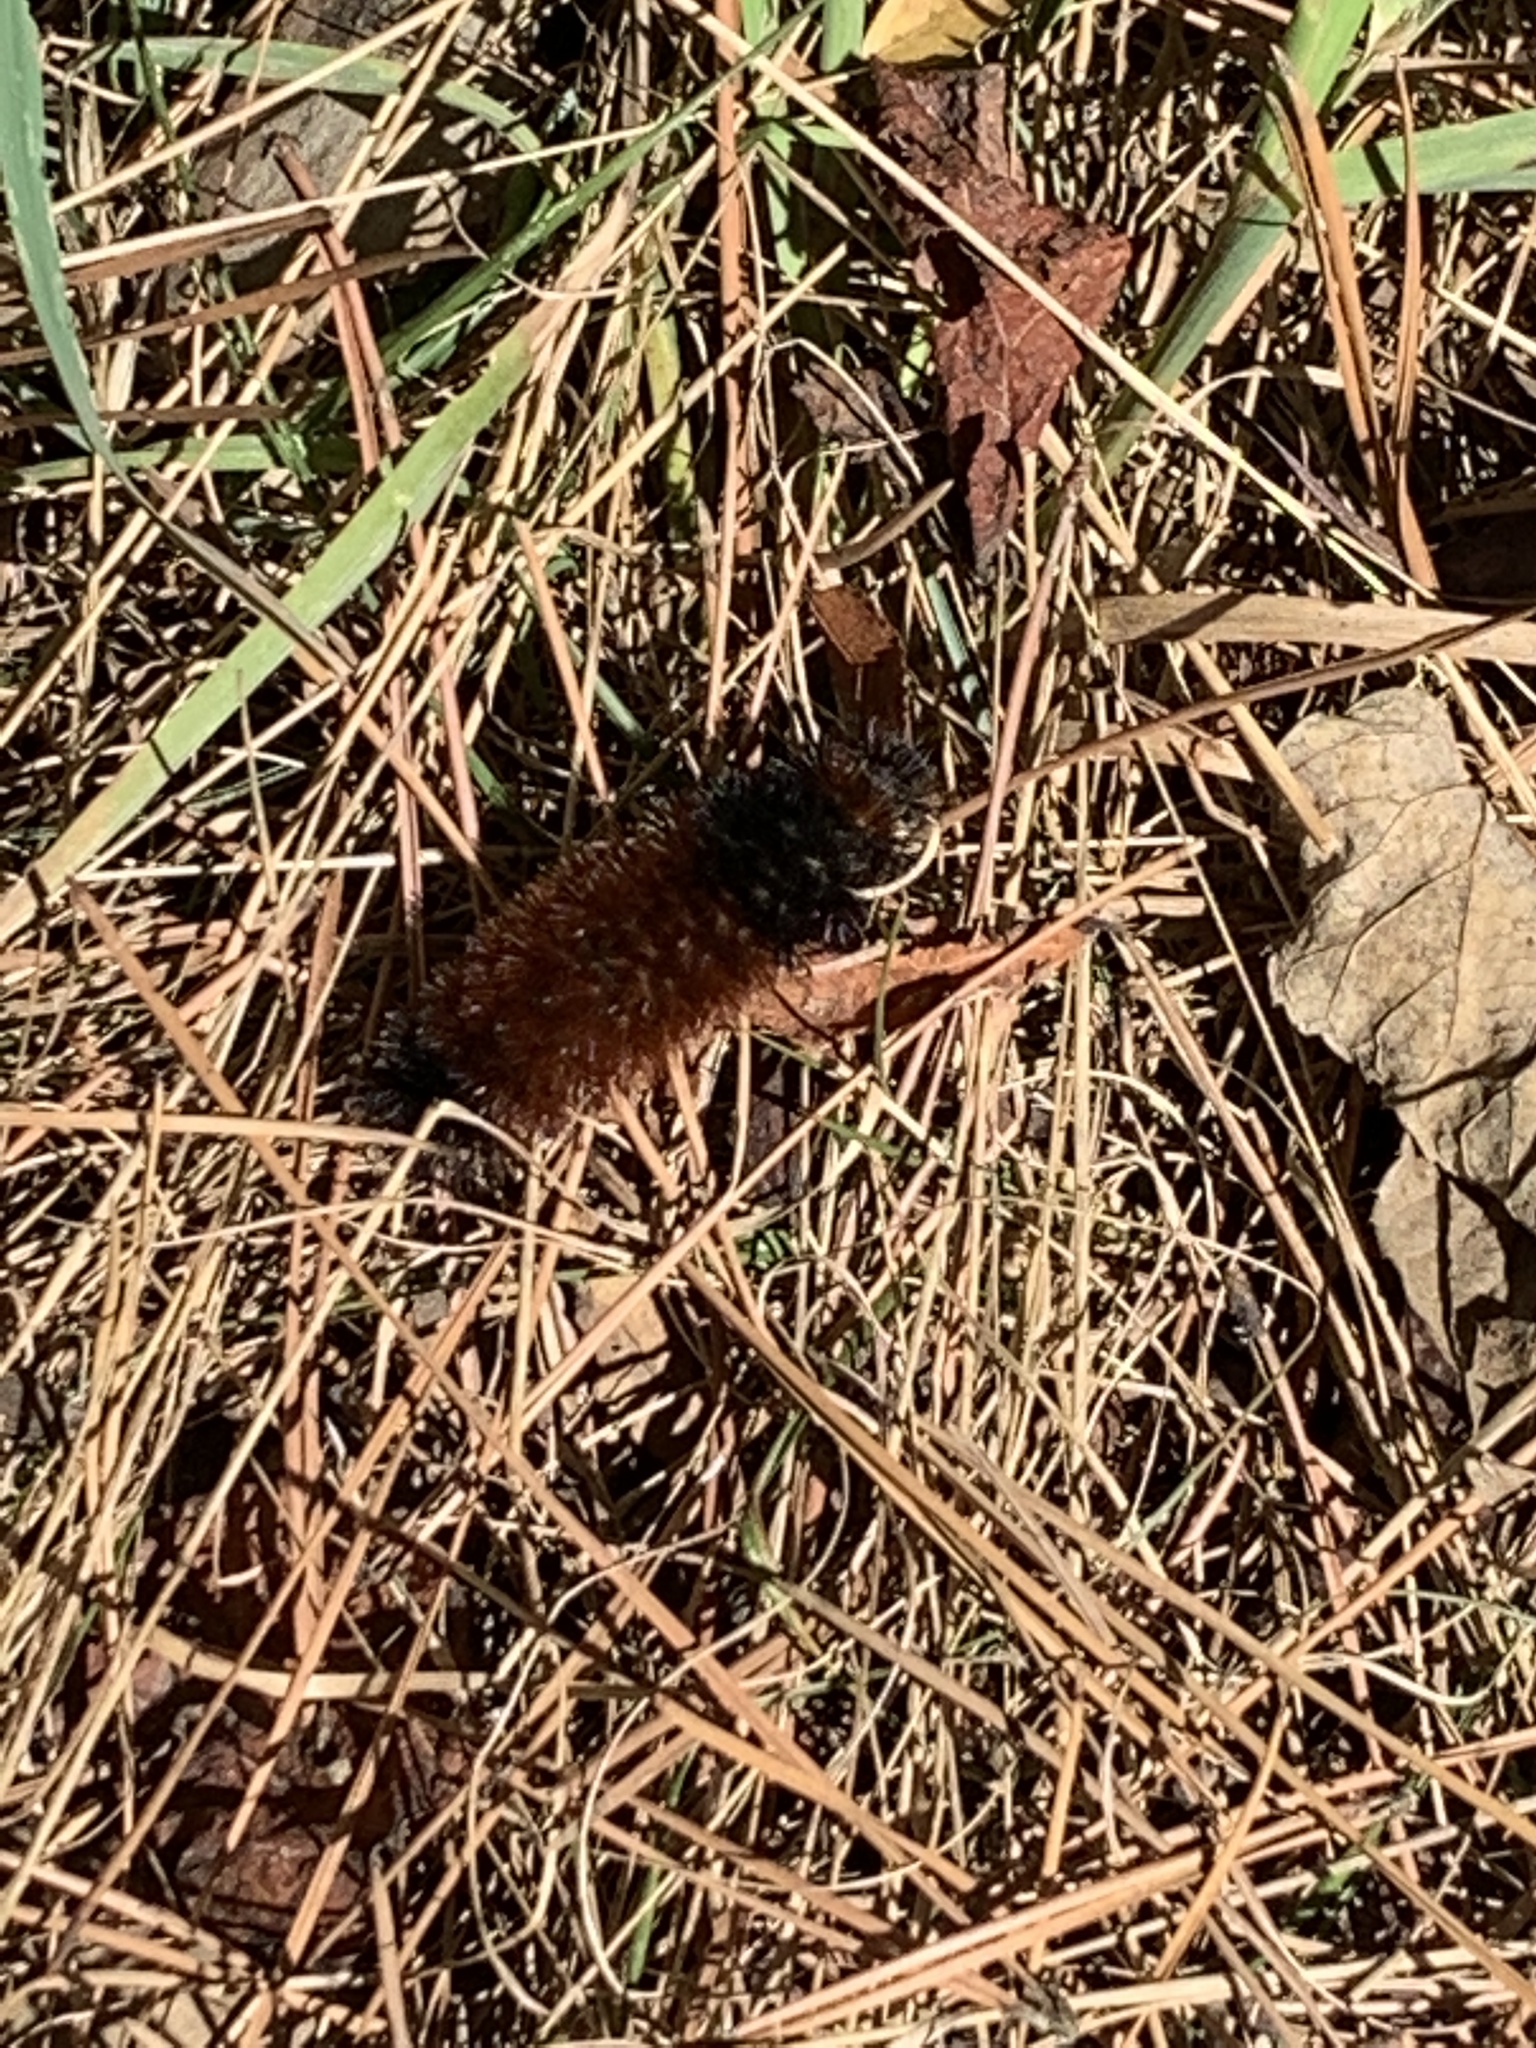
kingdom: Animalia
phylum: Arthropoda
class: Insecta
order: Lepidoptera
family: Erebidae
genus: Pyrrharctia
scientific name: Pyrrharctia isabella
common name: Isabella tiger moth
